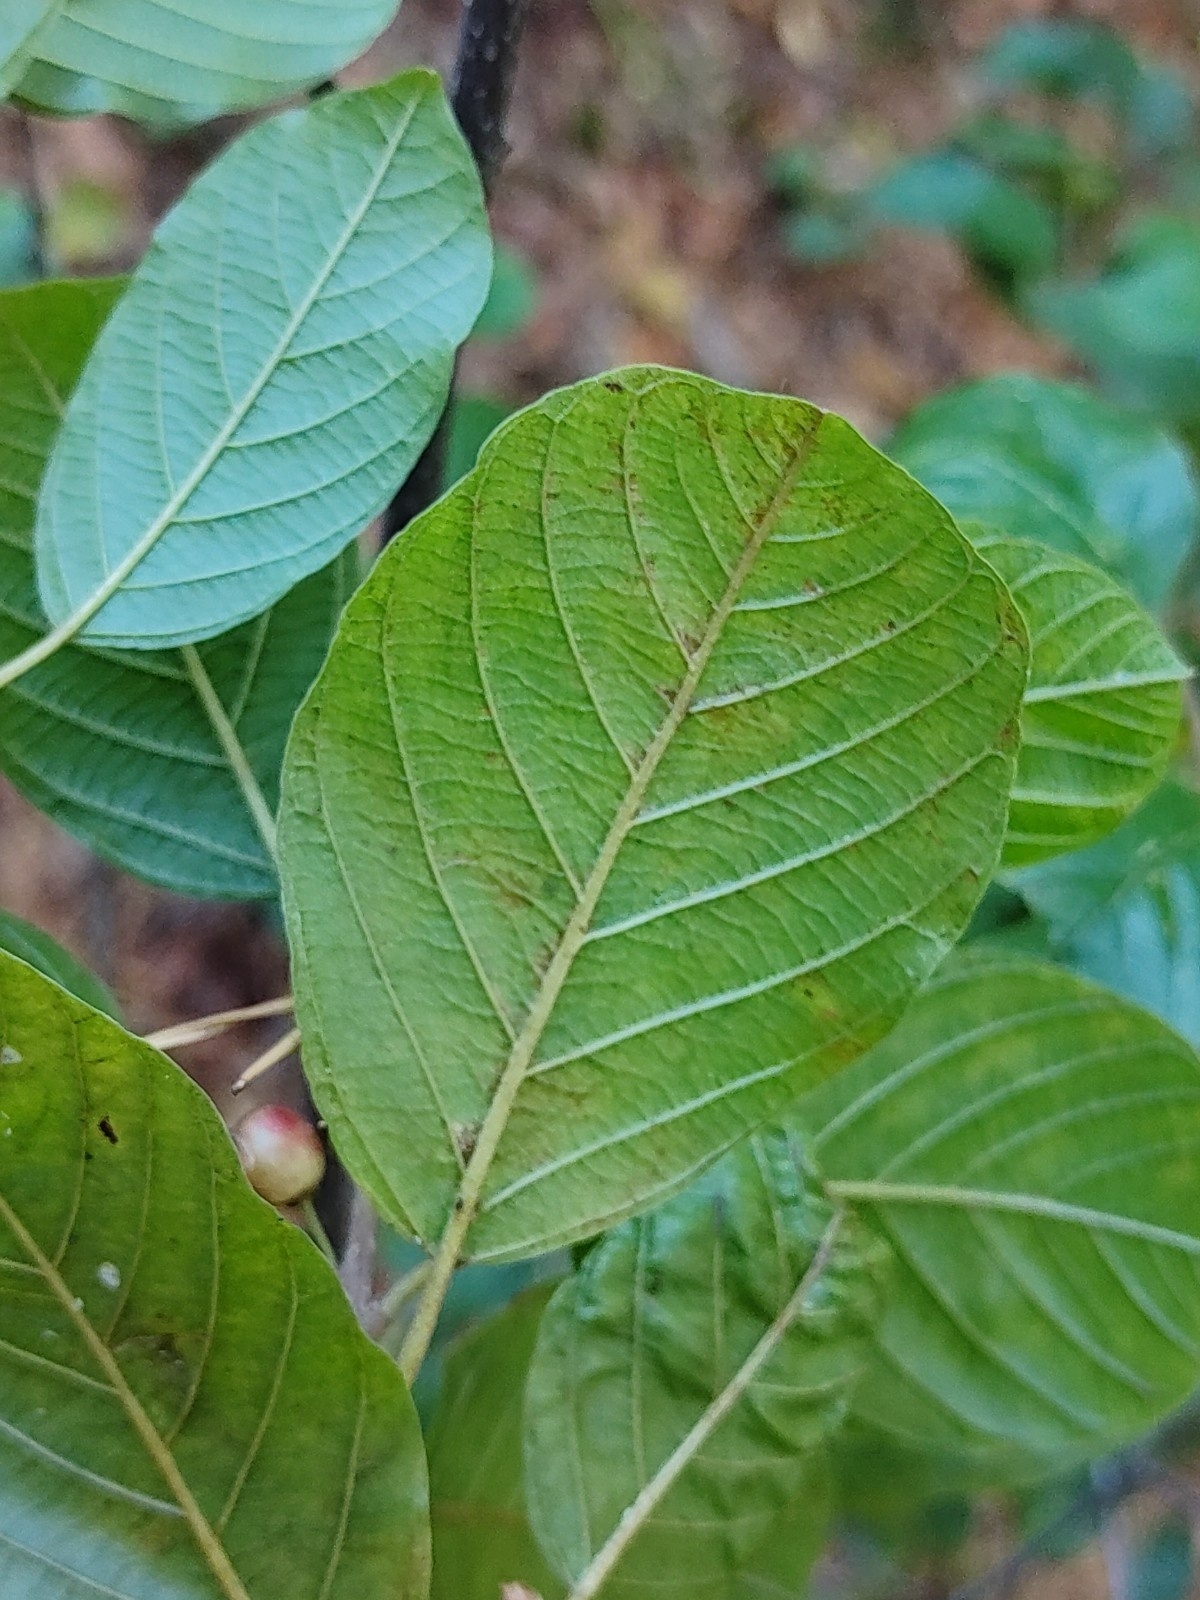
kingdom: Plantae
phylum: Tracheophyta
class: Magnoliopsida
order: Rosales
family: Rhamnaceae
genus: Frangula
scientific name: Frangula alnus
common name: Alder buckthorn
